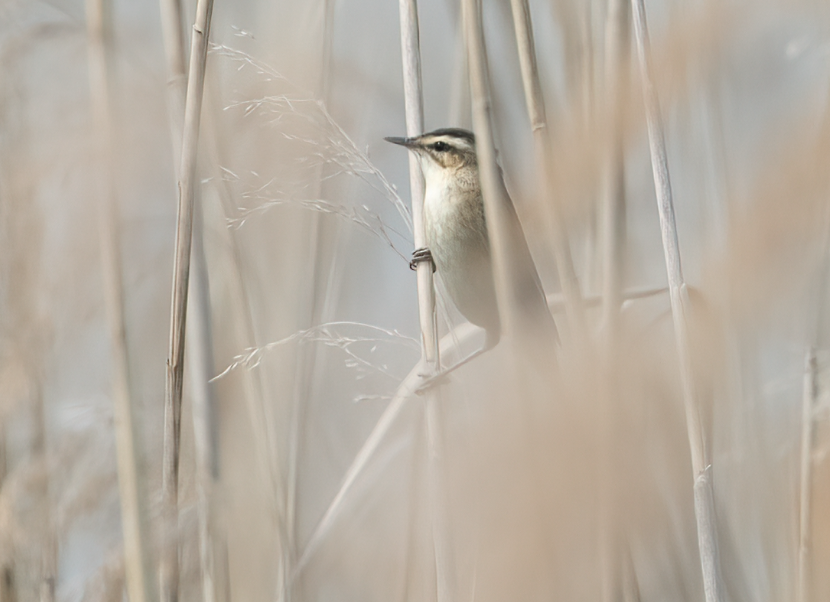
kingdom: Animalia
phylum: Chordata
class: Aves
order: Passeriformes
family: Acrocephalidae
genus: Acrocephalus
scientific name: Acrocephalus schoenobaenus
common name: Sedge warbler
